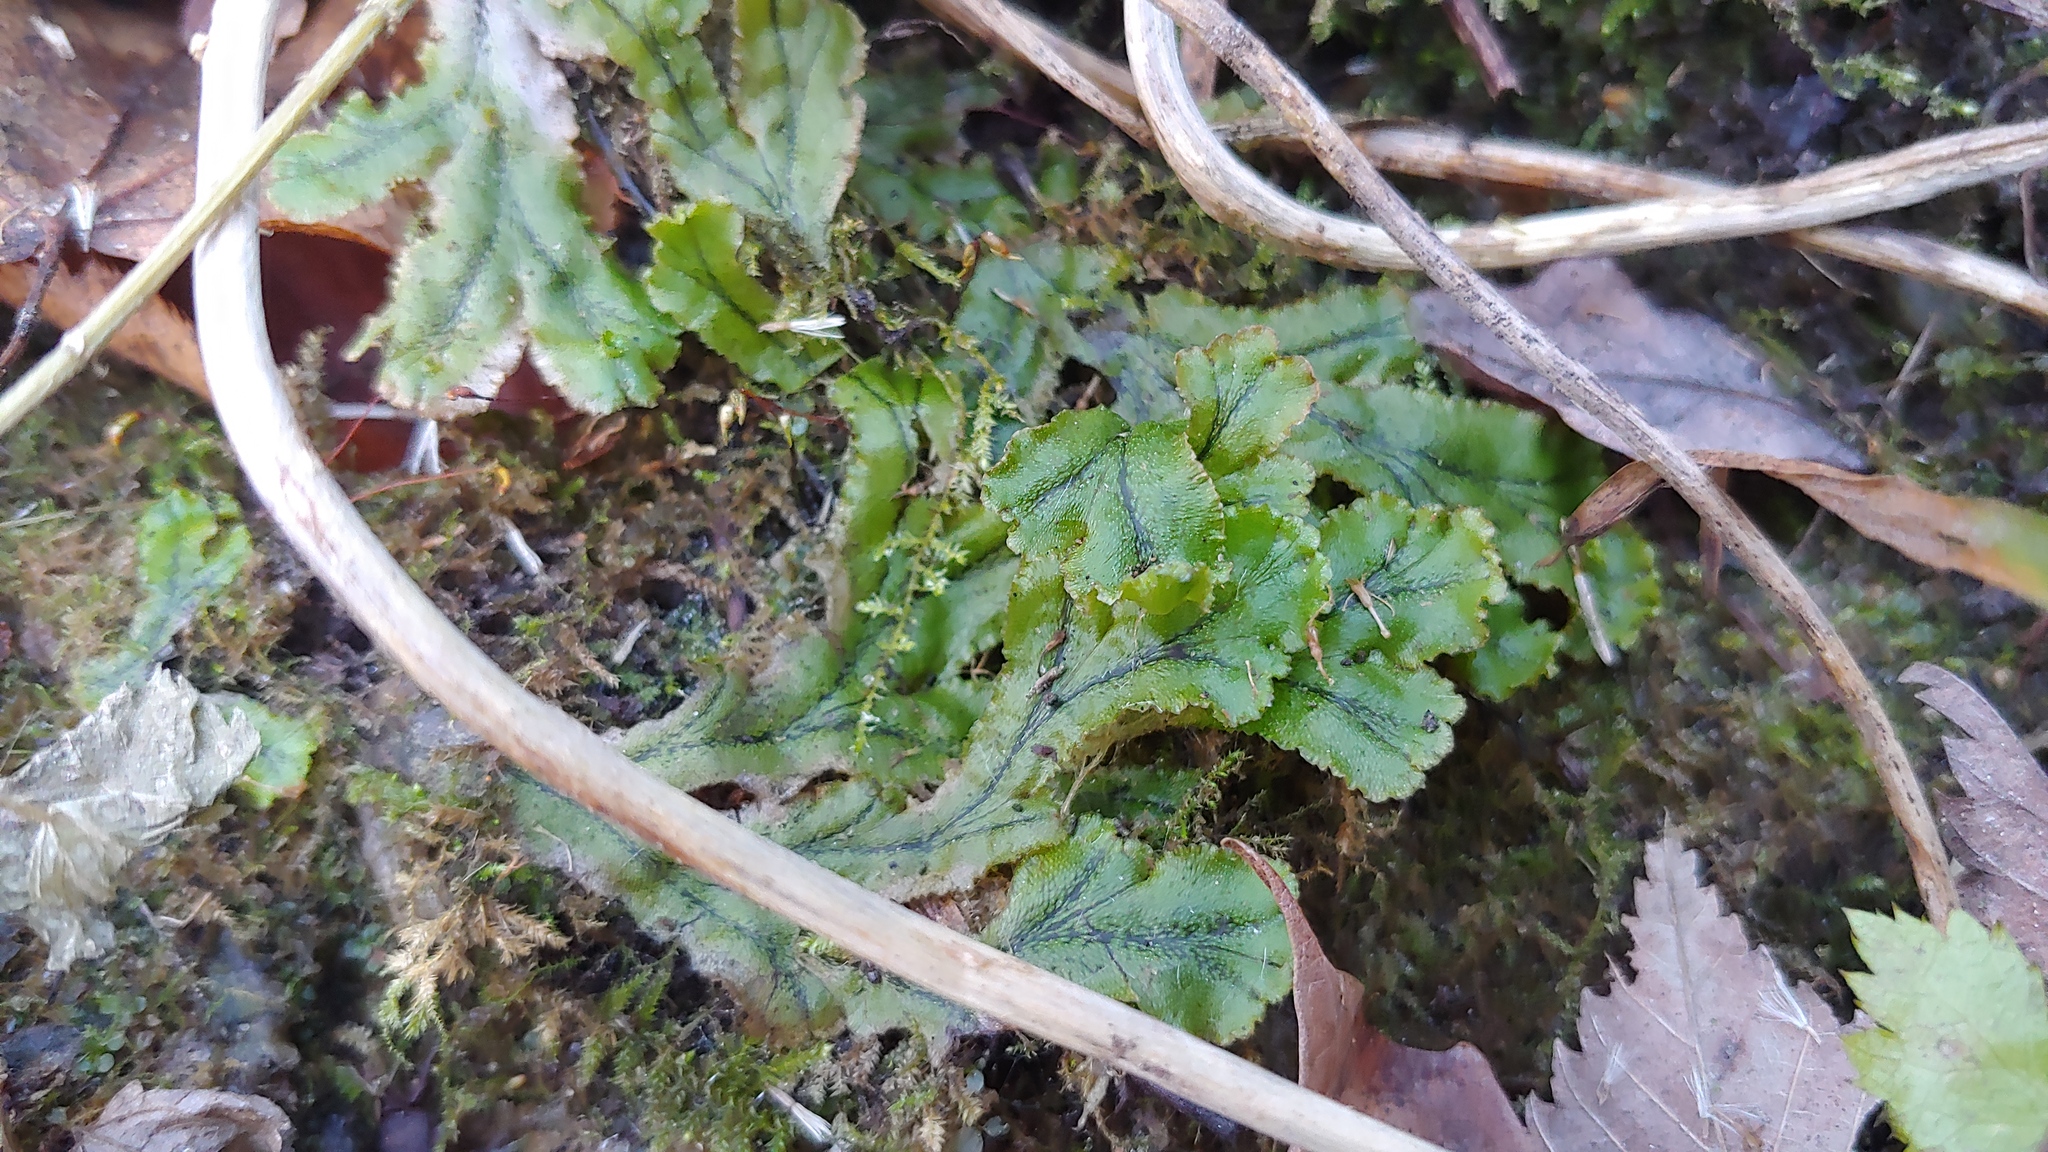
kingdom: Plantae
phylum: Marchantiophyta
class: Marchantiopsida
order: Marchantiales
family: Marchantiaceae
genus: Marchantia
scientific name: Marchantia polymorpha
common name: Common liverwort
